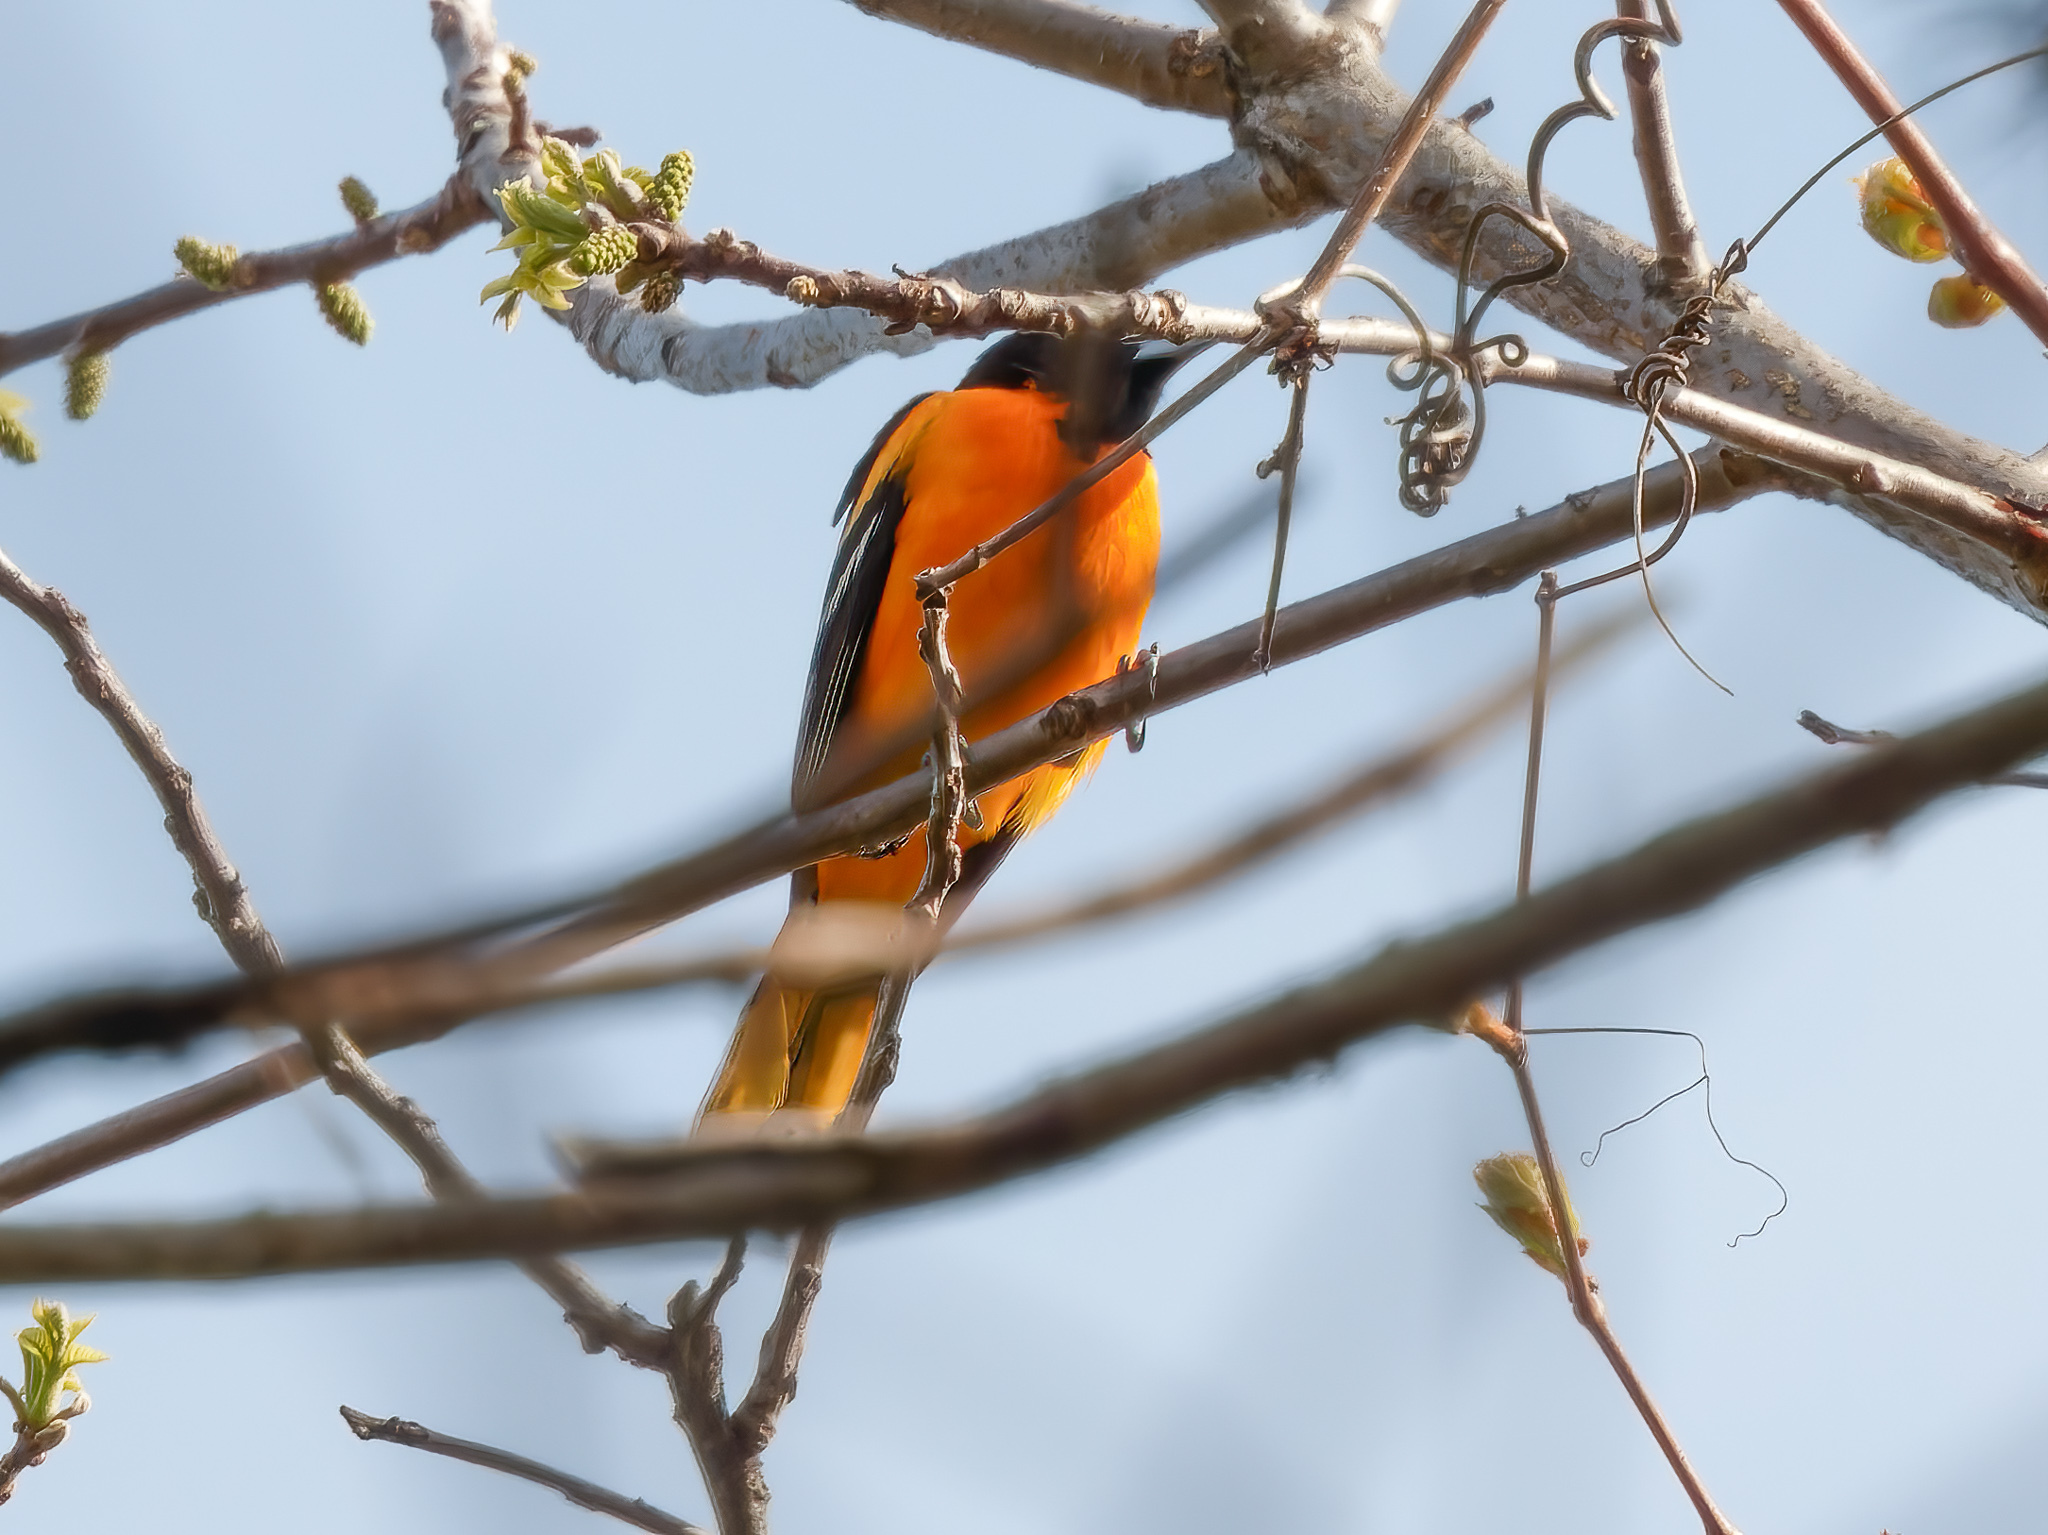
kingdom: Animalia
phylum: Chordata
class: Aves
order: Passeriformes
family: Icteridae
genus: Icterus
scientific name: Icterus galbula
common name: Baltimore oriole
